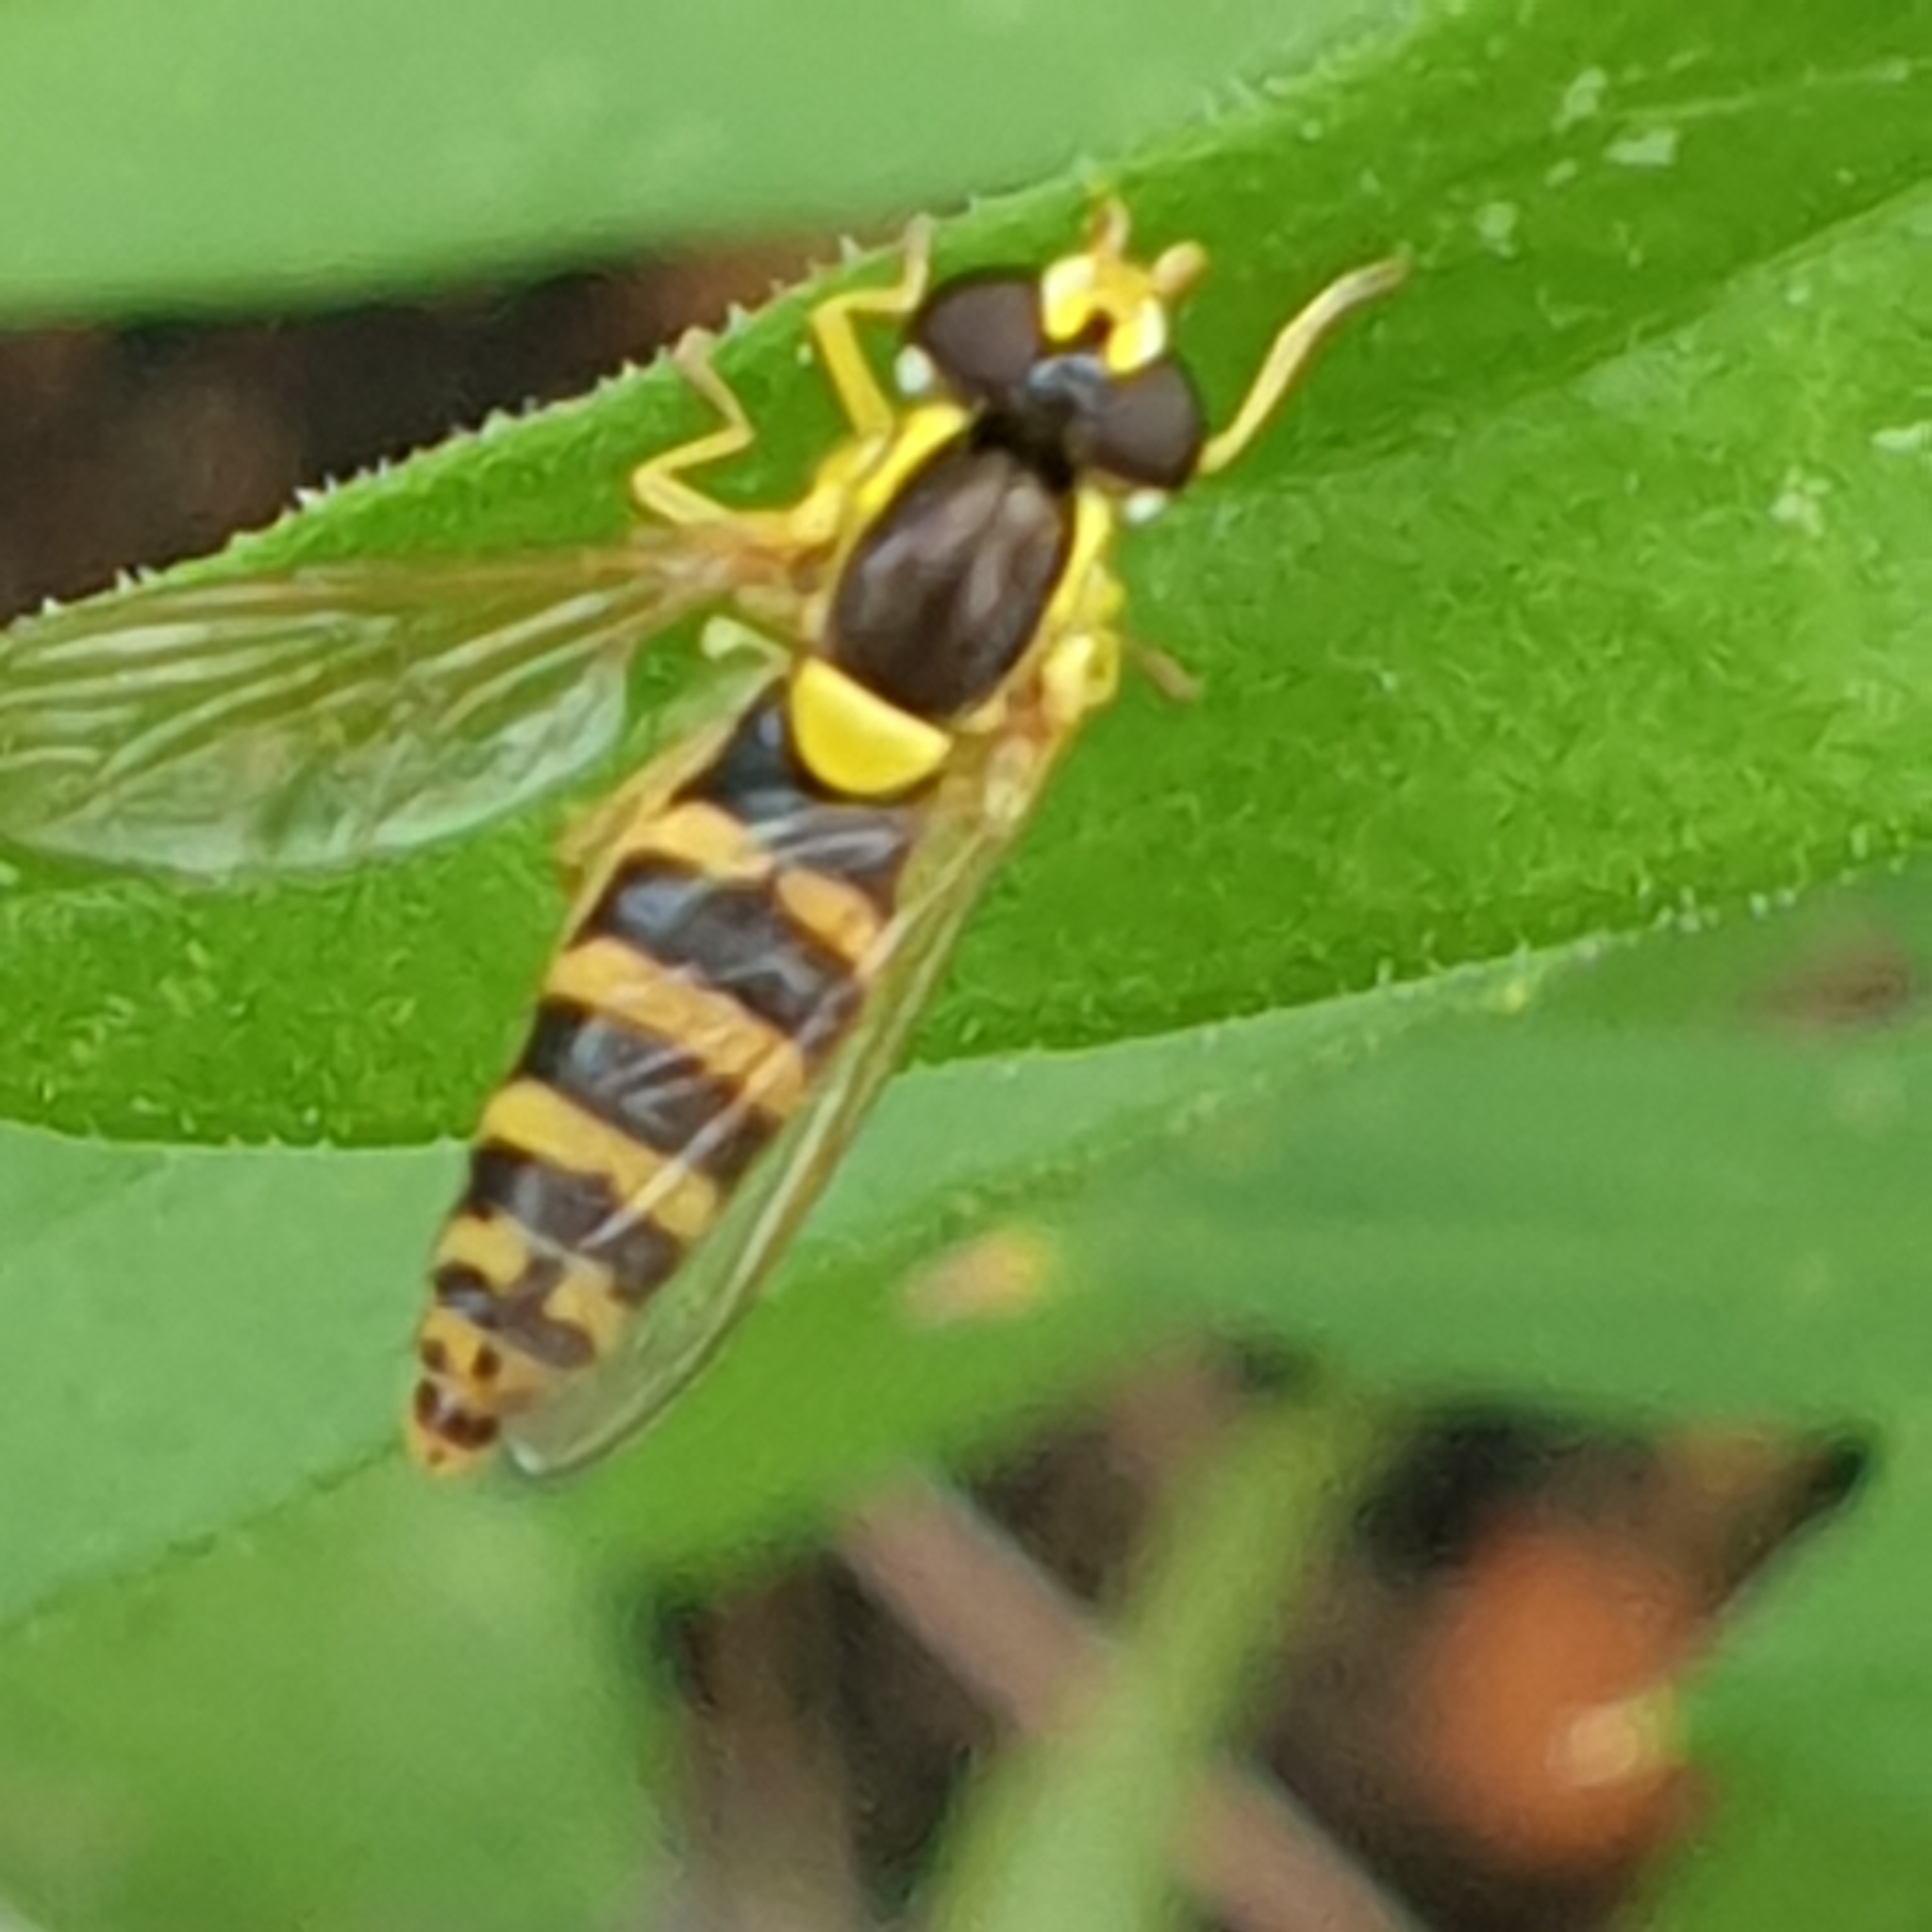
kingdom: Animalia
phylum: Arthropoda
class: Insecta
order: Diptera
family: Syrphidae
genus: Sphaerophoria
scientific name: Sphaerophoria
